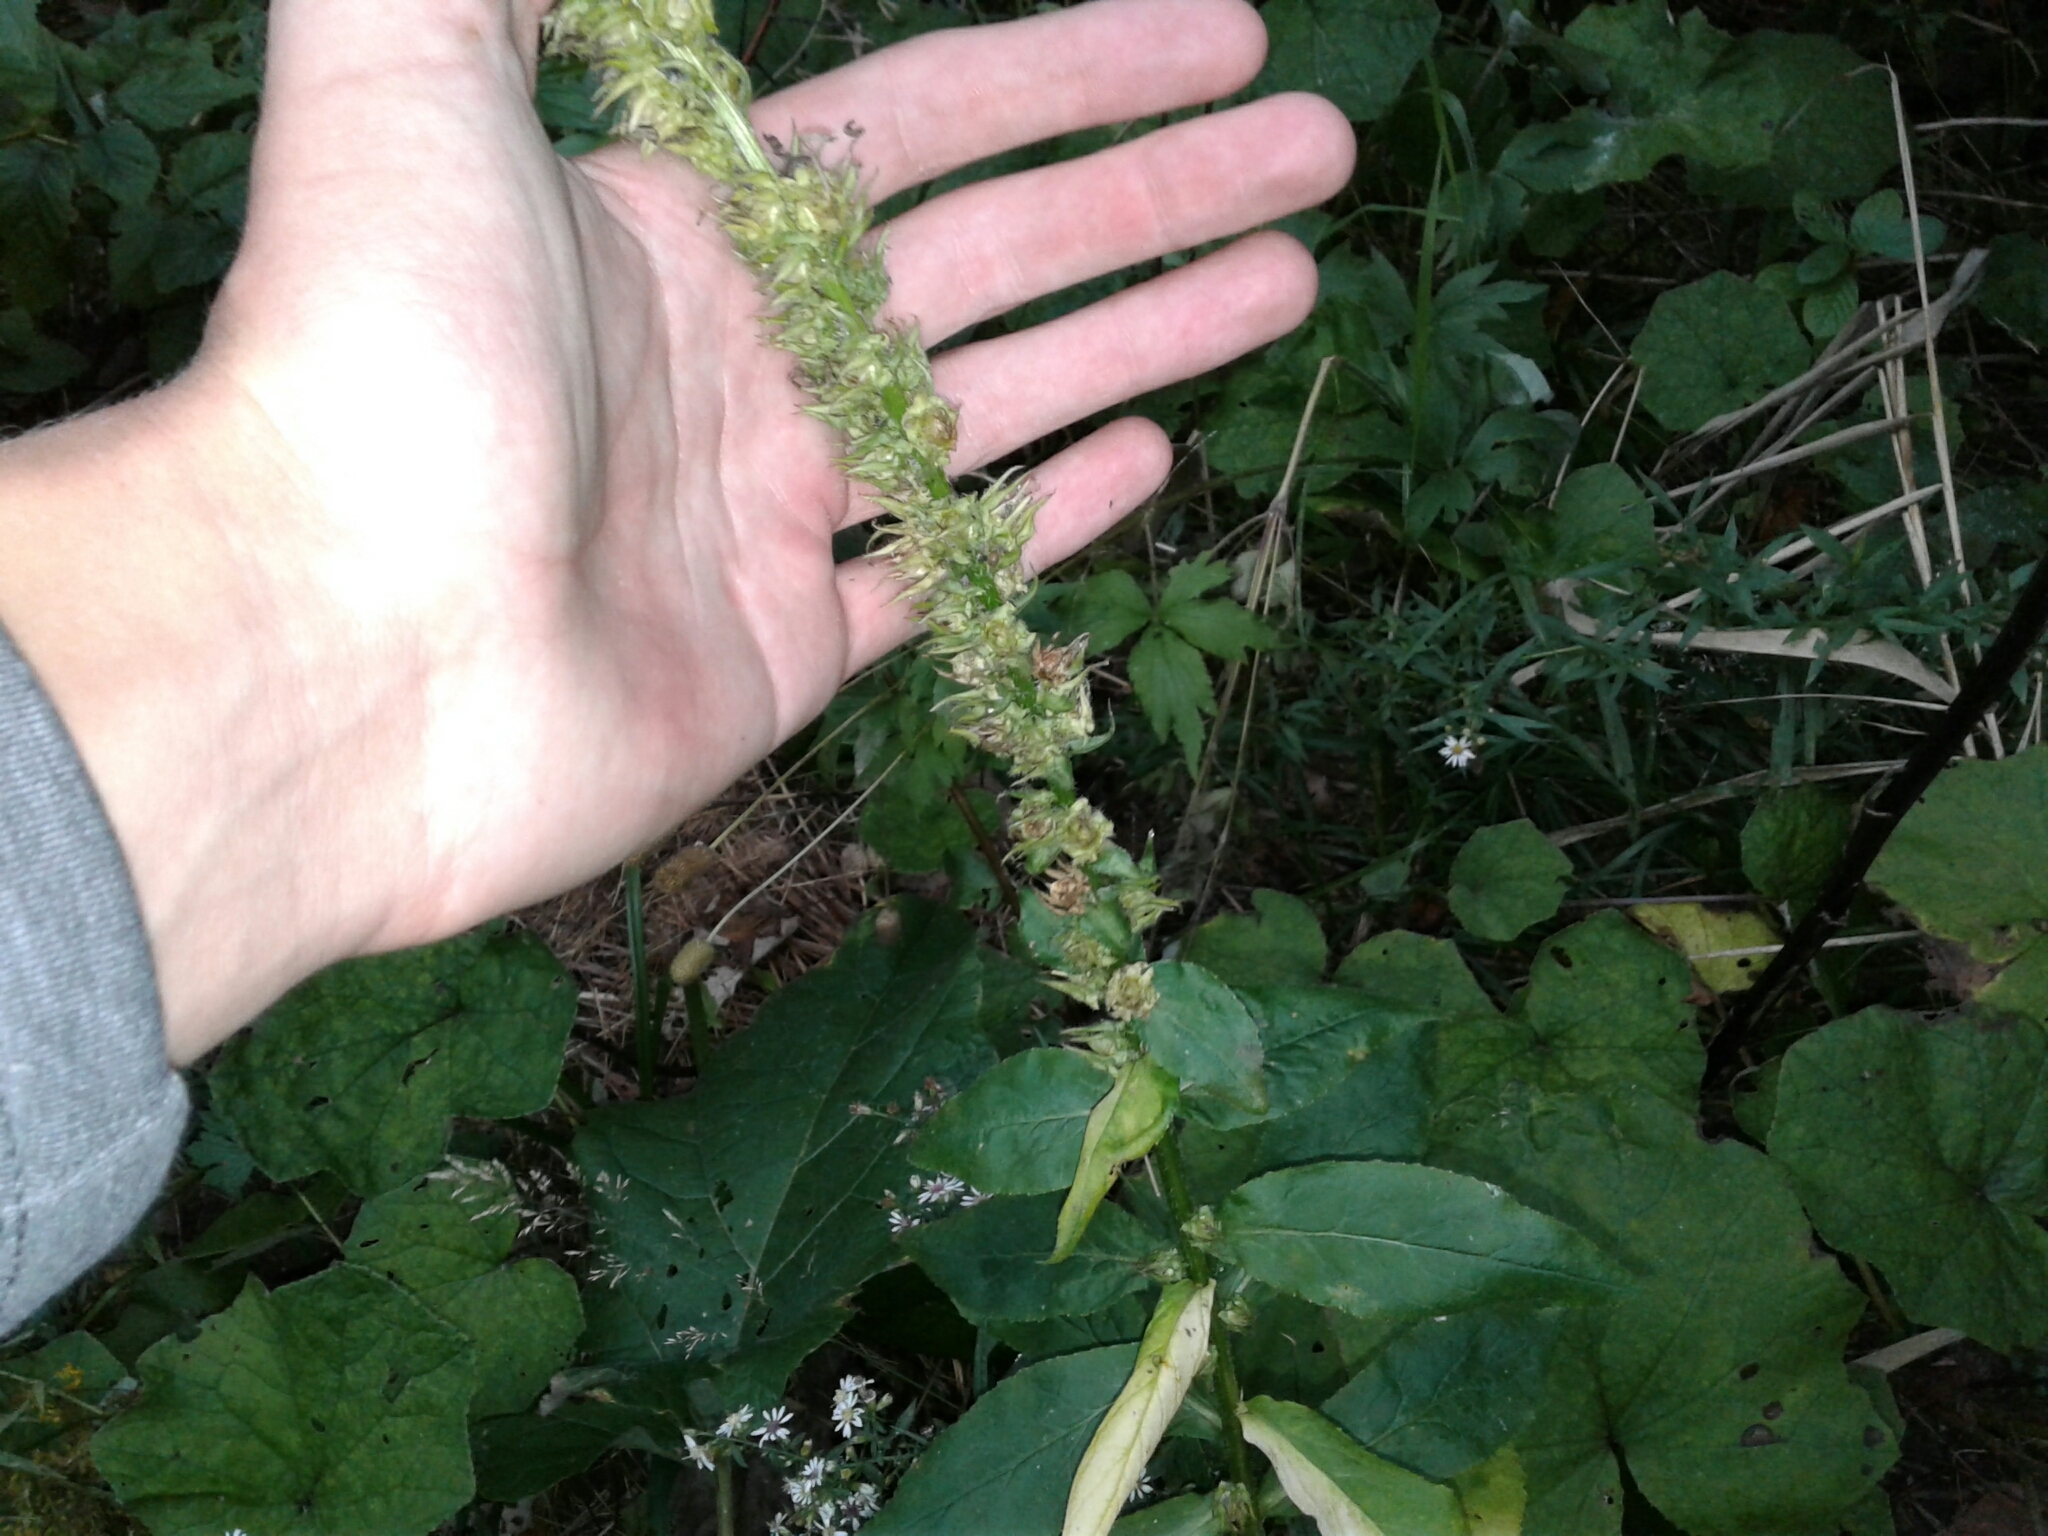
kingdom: Plantae
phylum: Tracheophyta
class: Magnoliopsida
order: Asterales
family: Campanulaceae
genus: Lobelia
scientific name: Lobelia siphilitica
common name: Great lobelia
